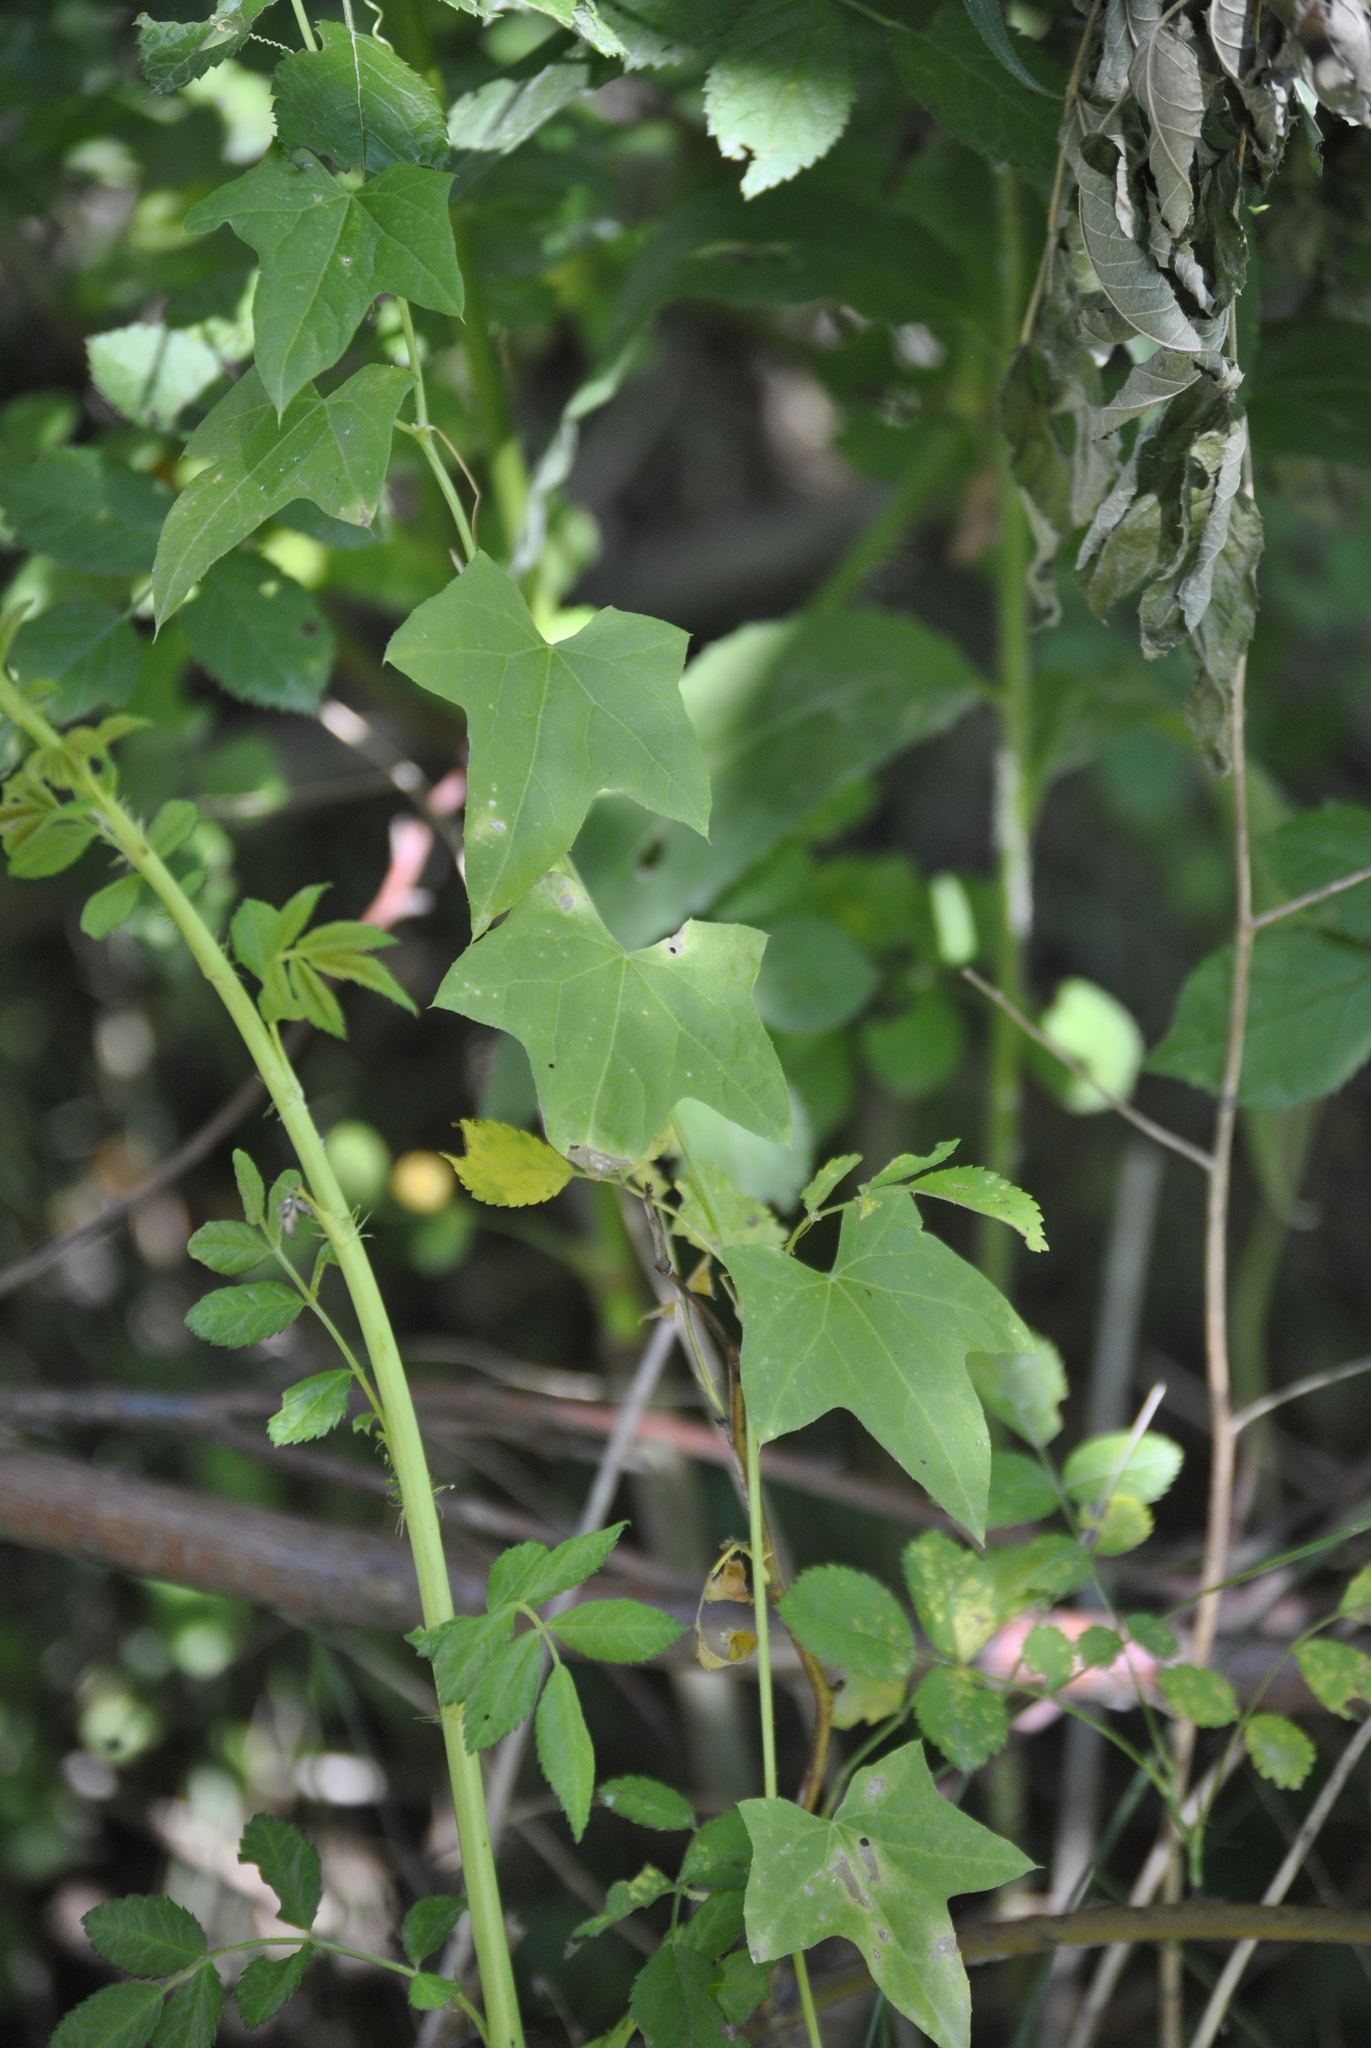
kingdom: Plantae
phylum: Tracheophyta
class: Magnoliopsida
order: Cucurbitales
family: Cucurbitaceae
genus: Echinocystis
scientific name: Echinocystis lobata
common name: Wild cucumber
